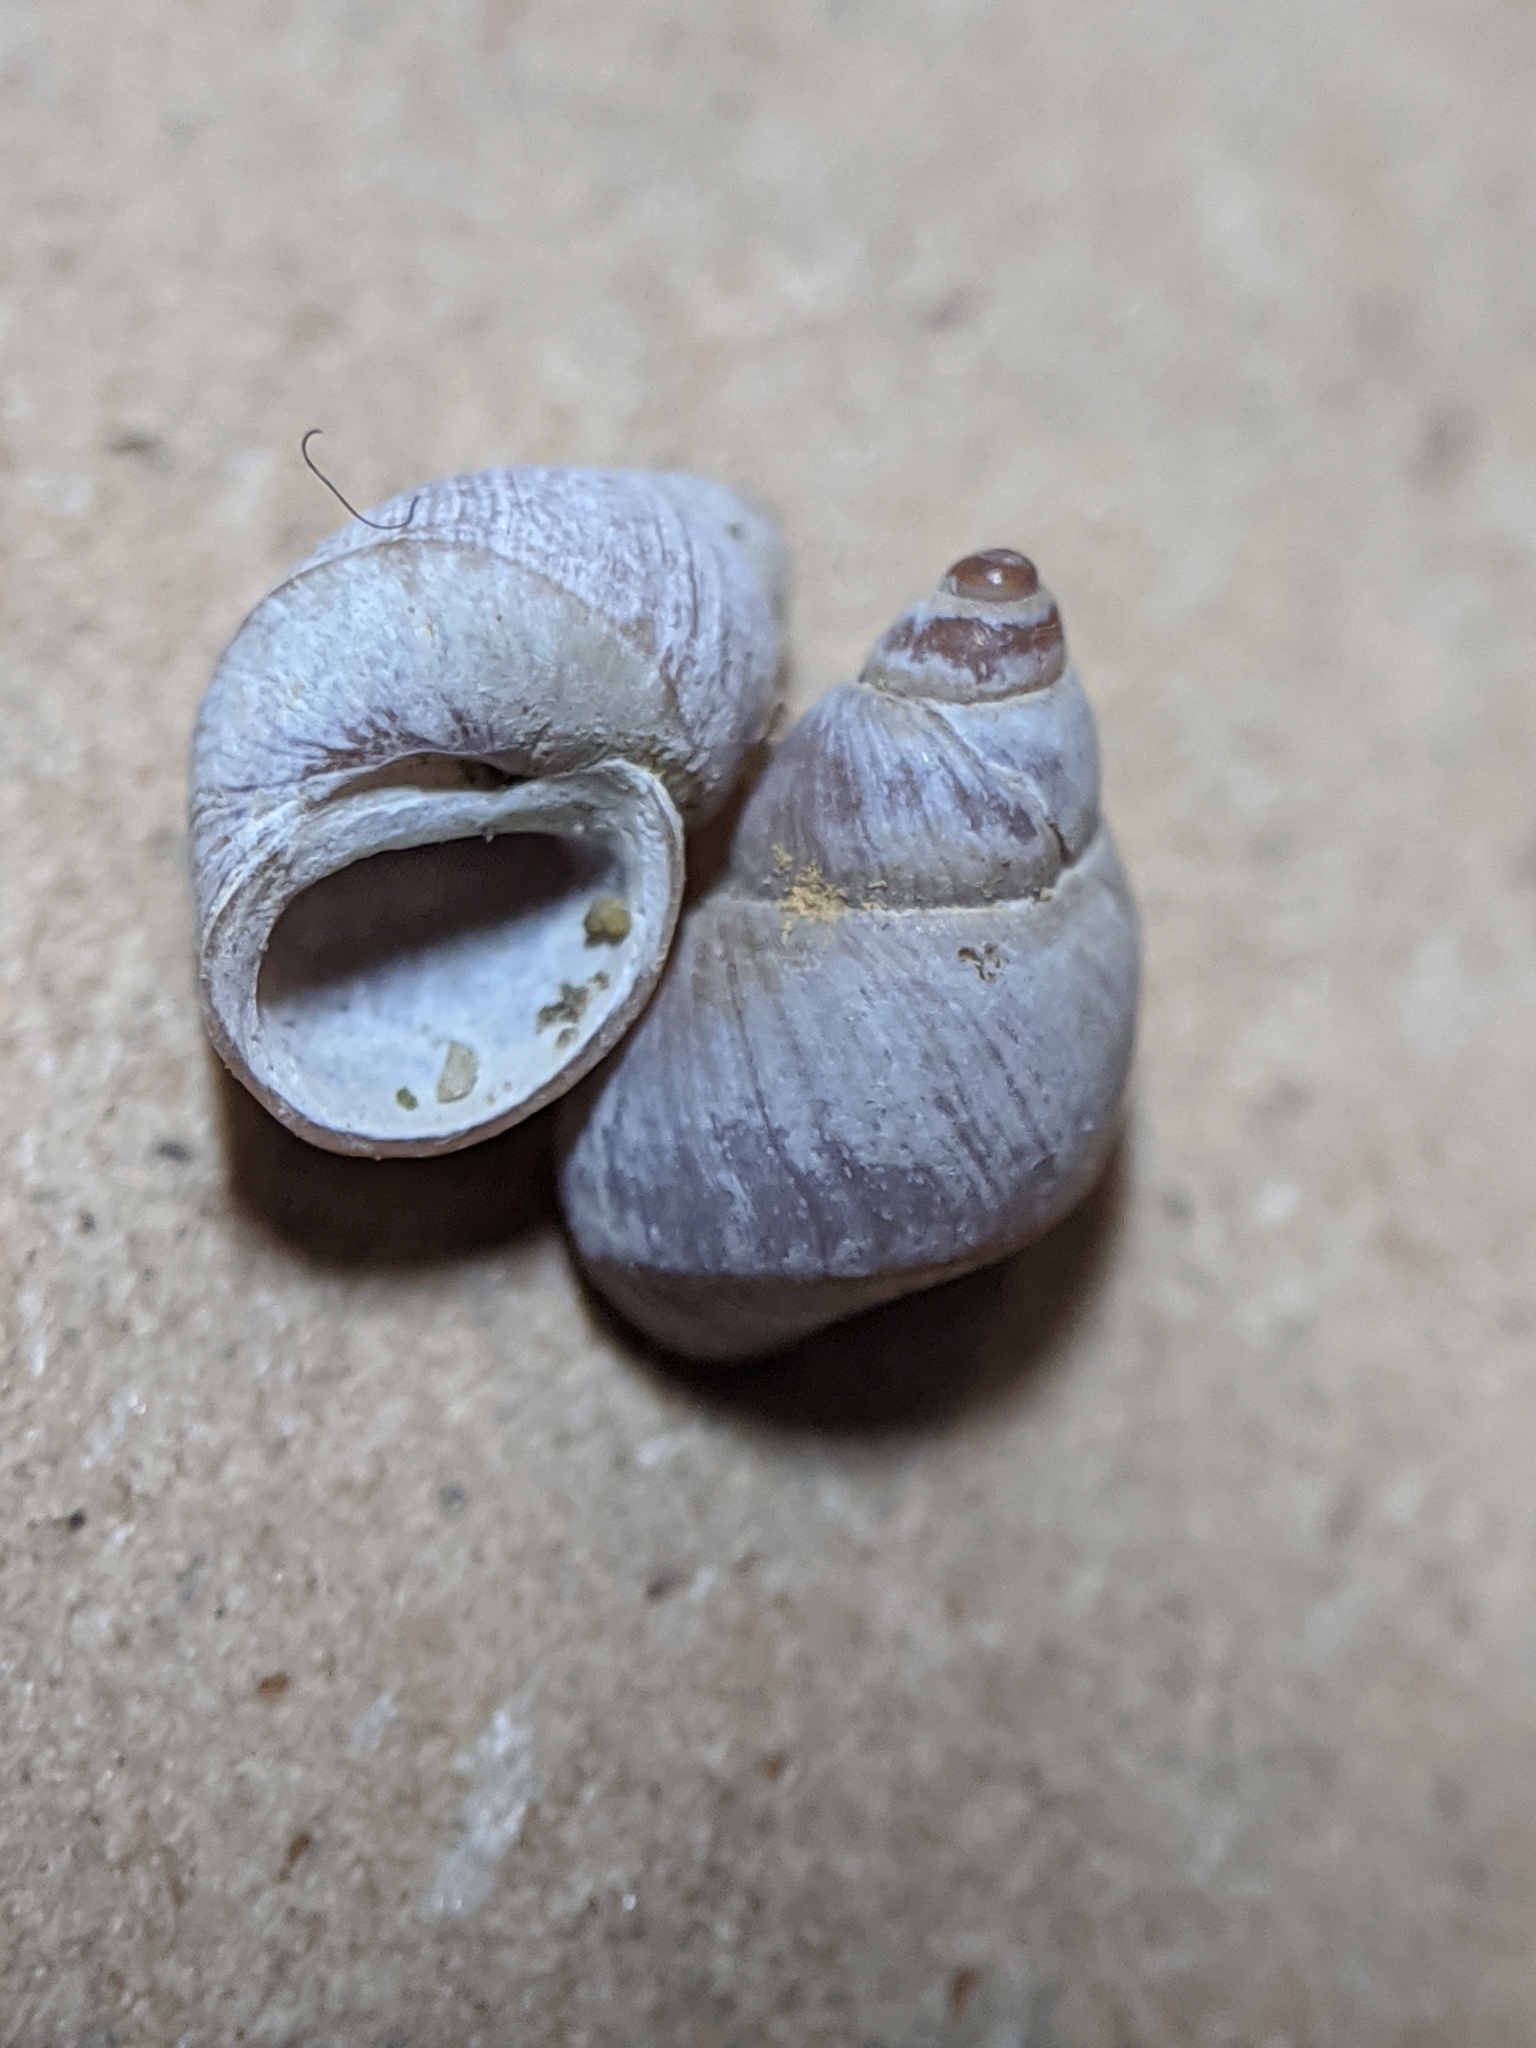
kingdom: Animalia
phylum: Mollusca
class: Gastropoda
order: Littorinimorpha
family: Littorinidae
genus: Lacuna
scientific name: Lacuna unifasciata
